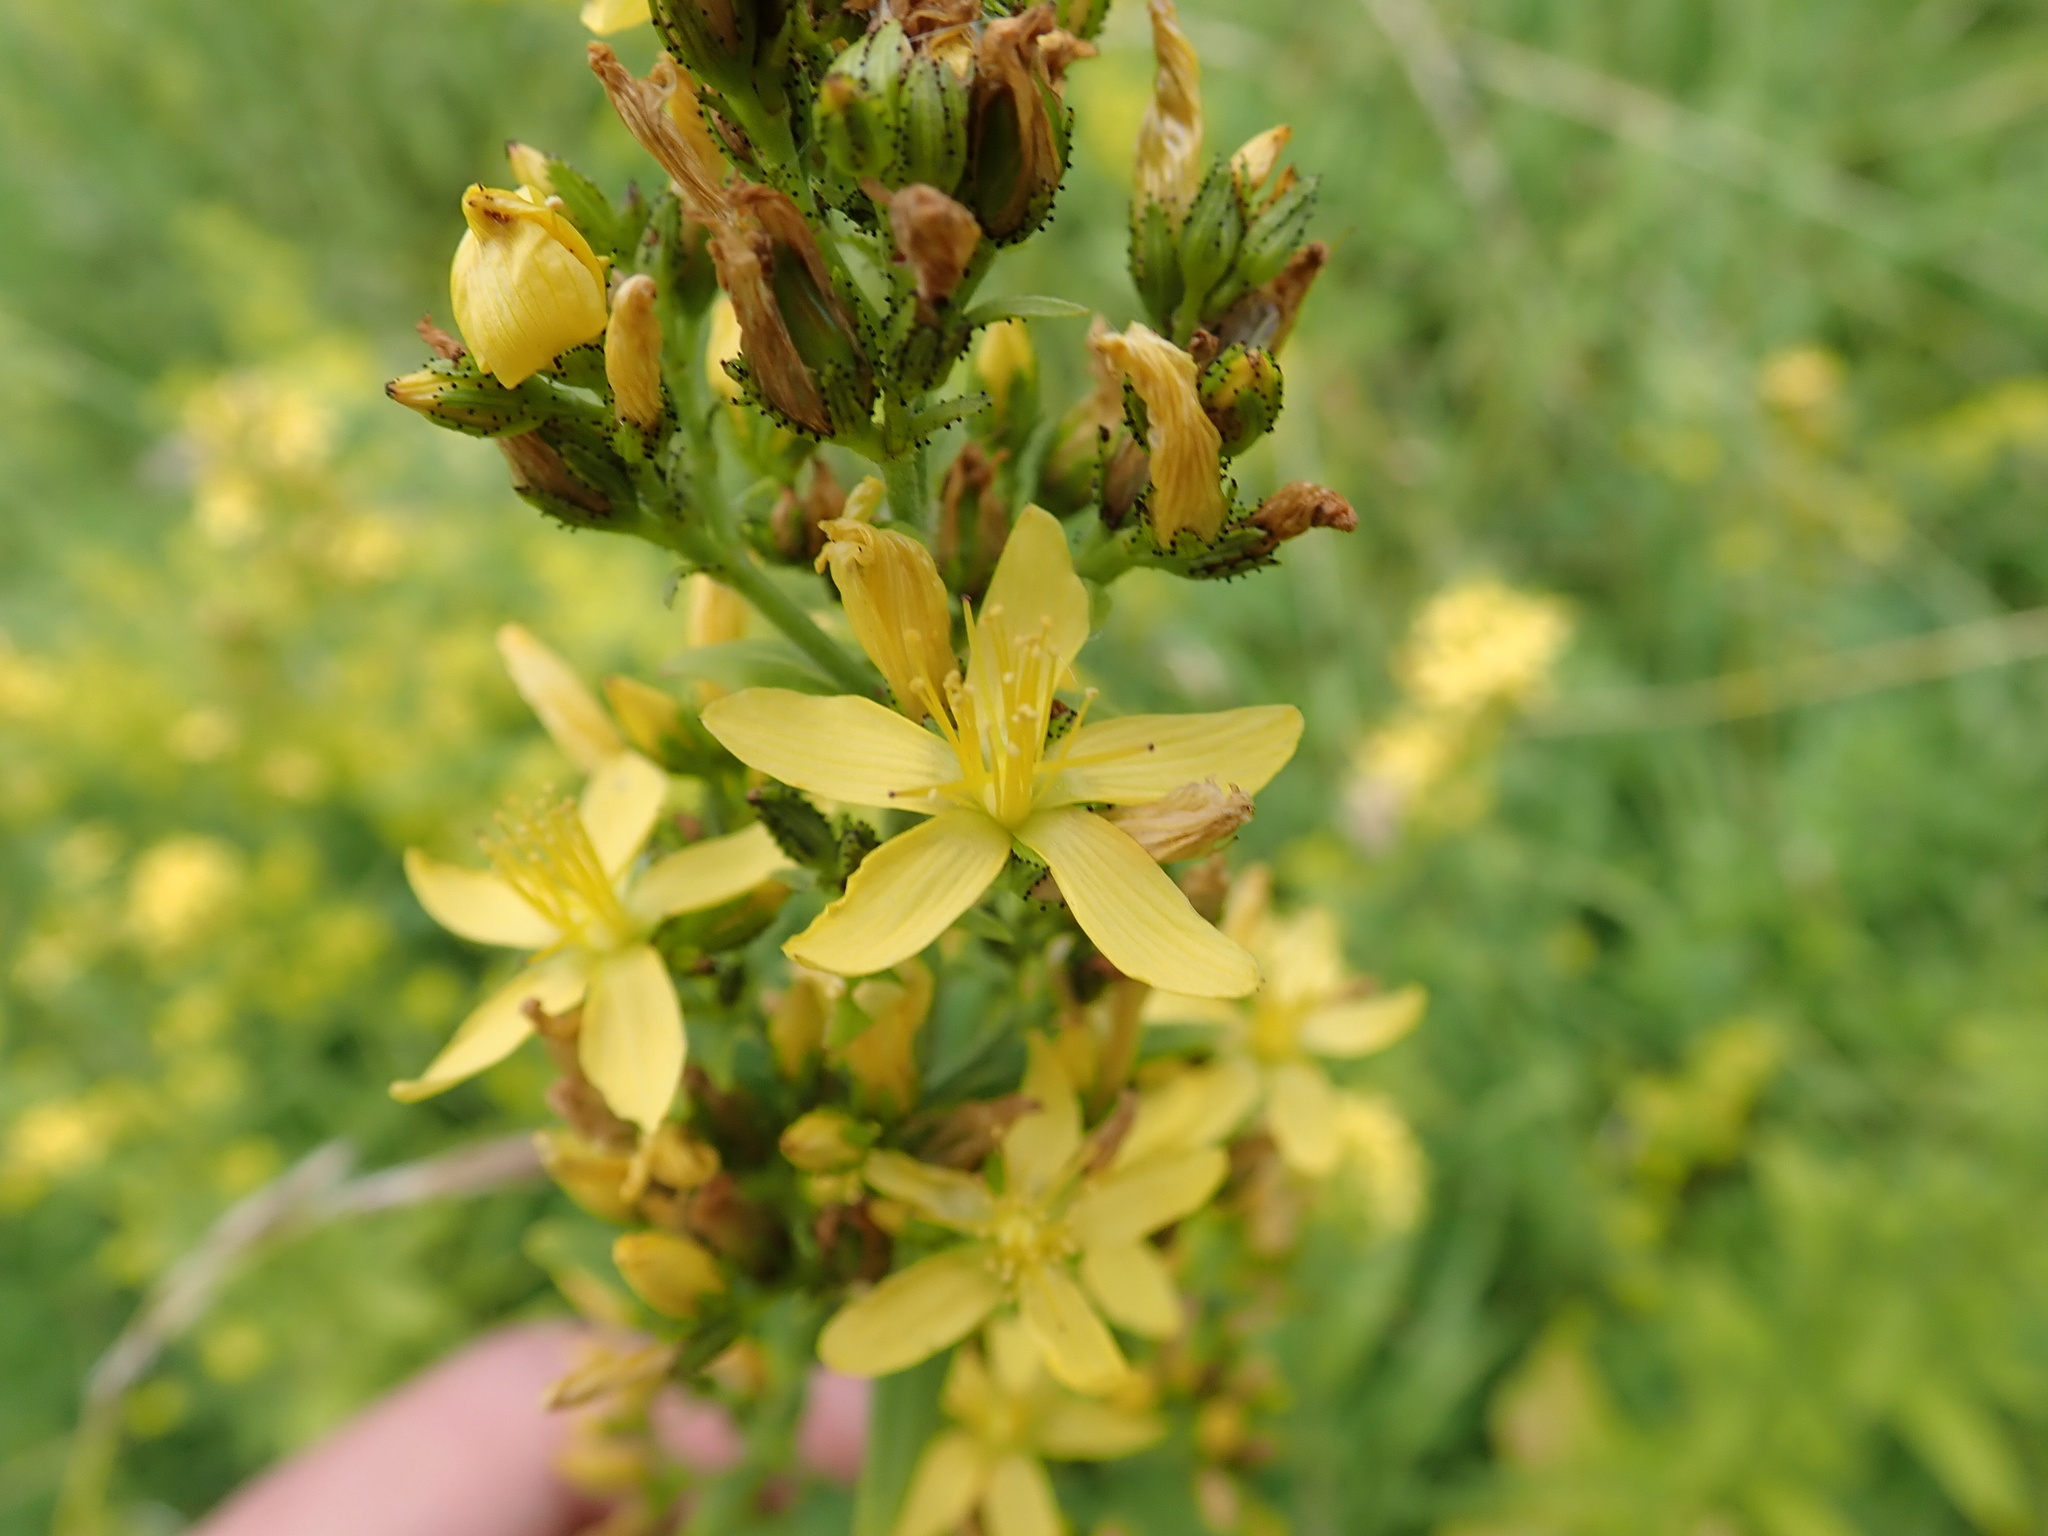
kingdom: Plantae
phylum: Tracheophyta
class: Magnoliopsida
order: Malpighiales
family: Hypericaceae
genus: Hypericum
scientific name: Hypericum hirsutum
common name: Hairy st. john's-wort
